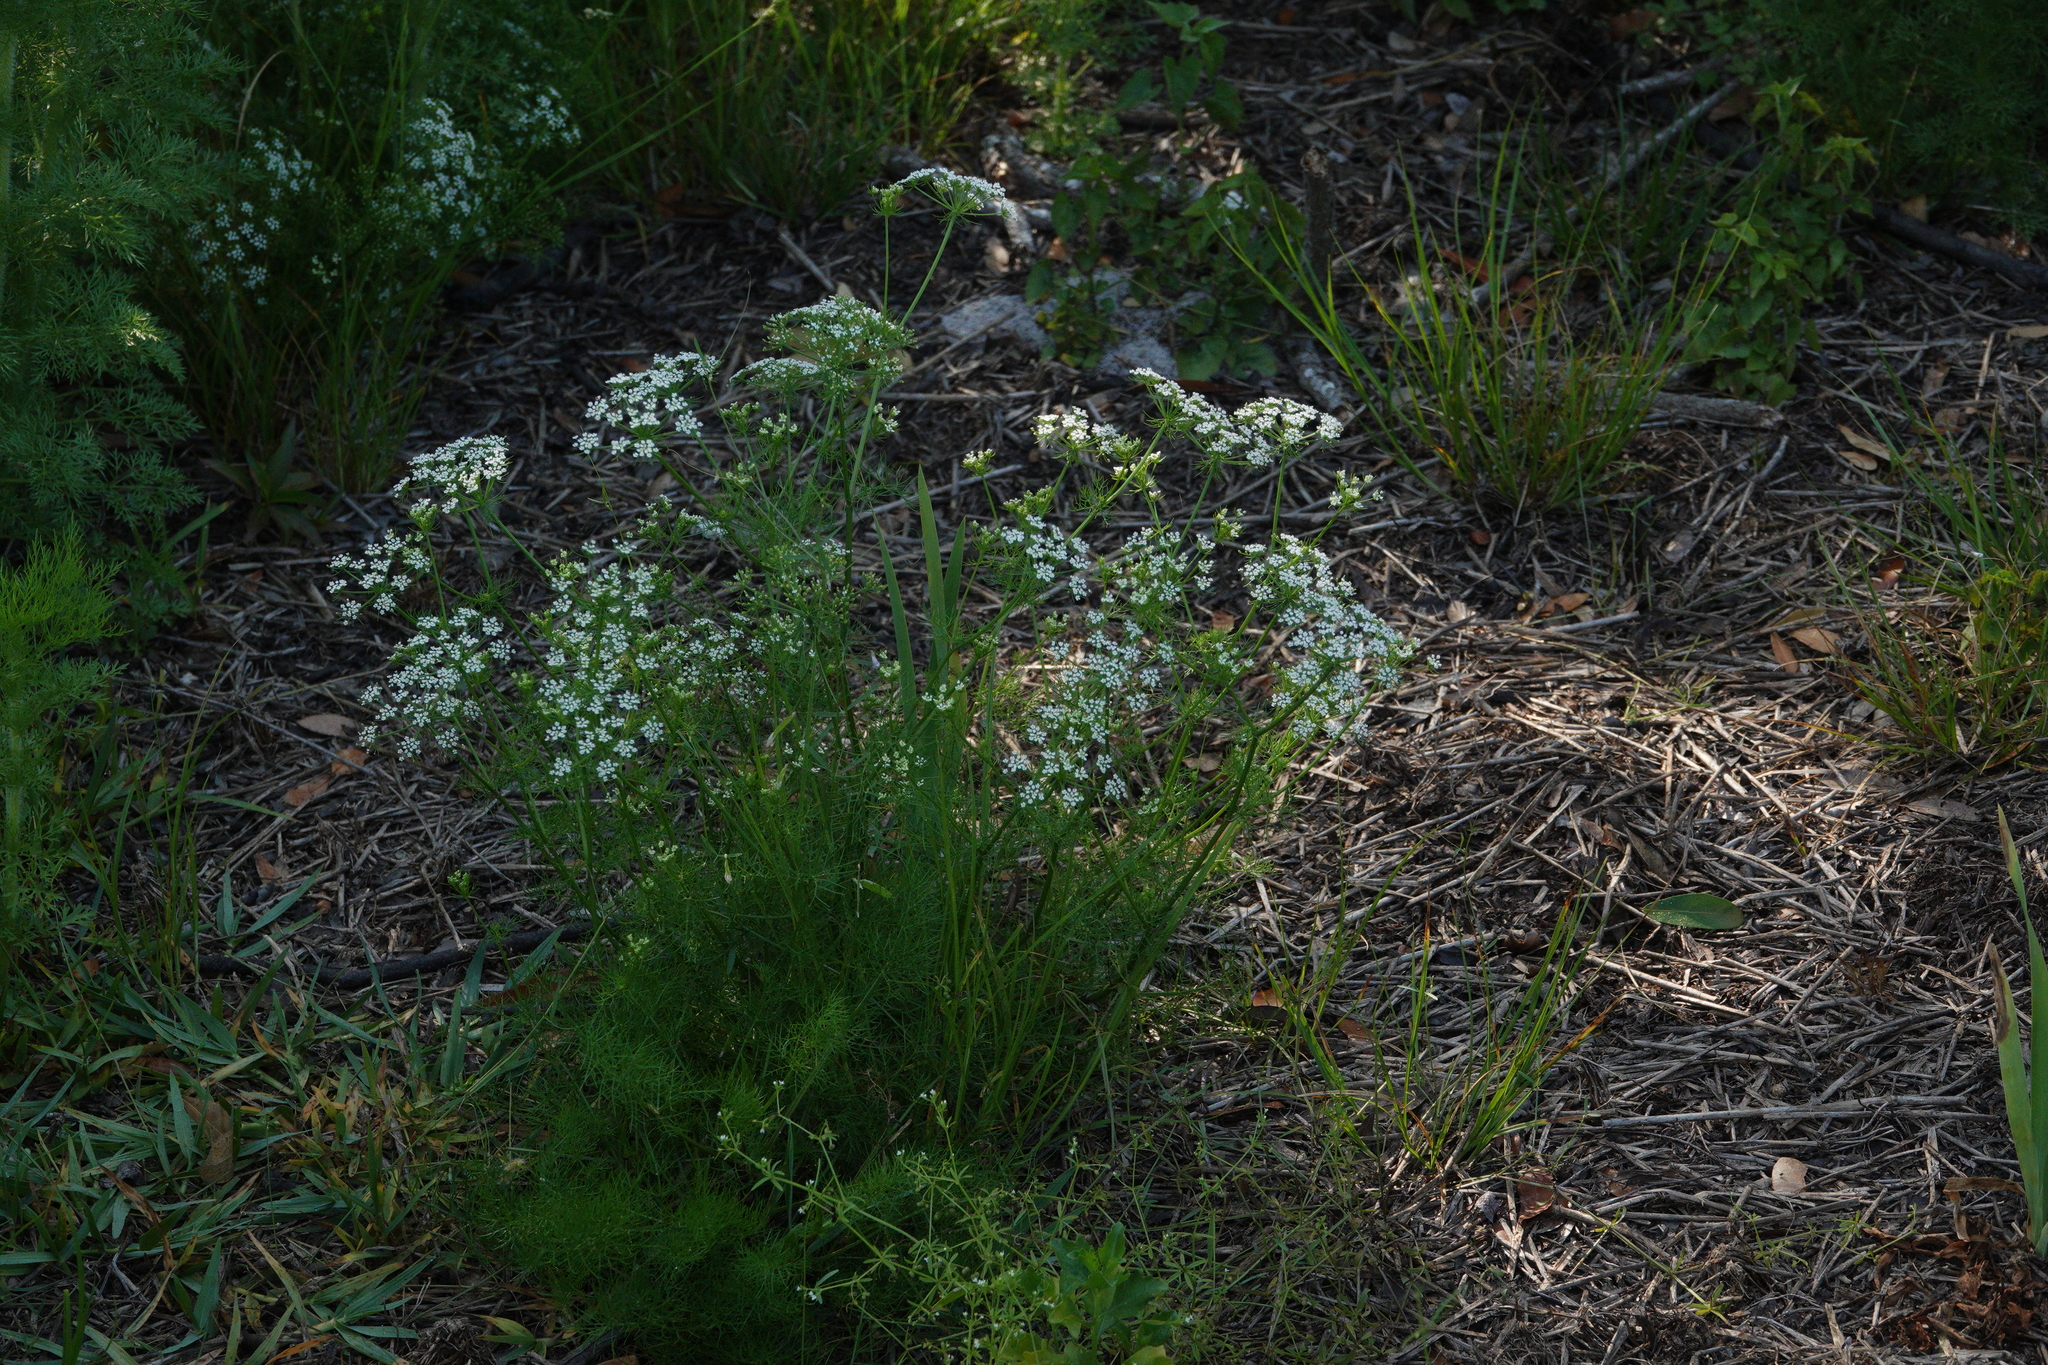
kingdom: Plantae
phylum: Tracheophyta
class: Magnoliopsida
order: Apiales
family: Apiaceae
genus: Ptilimnium
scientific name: Ptilimnium capillaceum
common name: Herbwilliam
